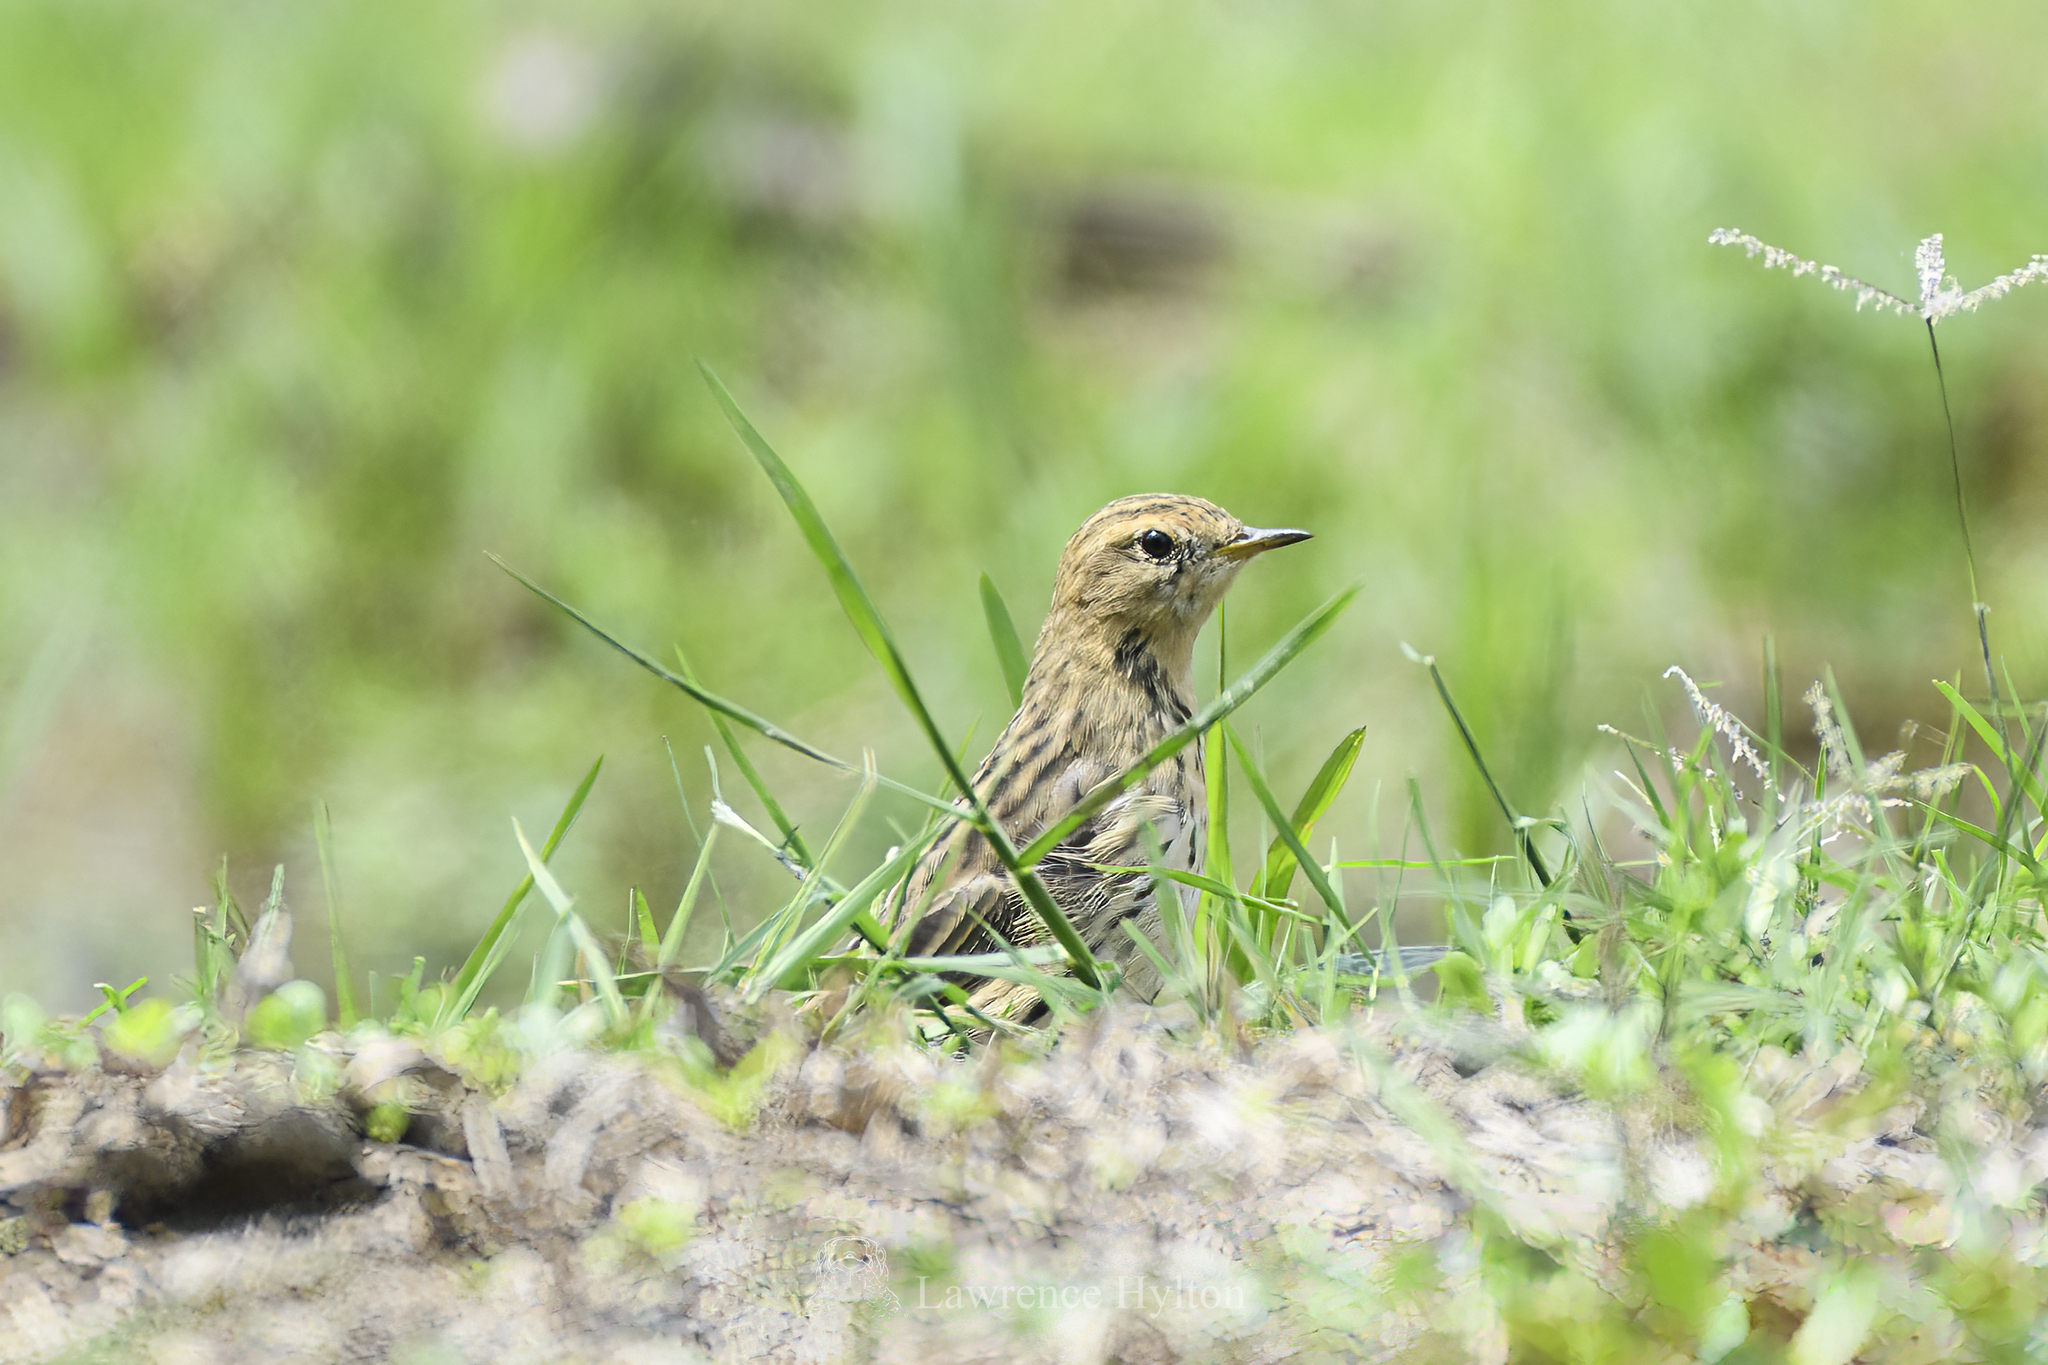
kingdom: Animalia
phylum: Chordata
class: Aves
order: Passeriformes
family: Motacillidae
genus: Anthus
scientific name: Anthus cervinus
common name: Red-throated pipit
